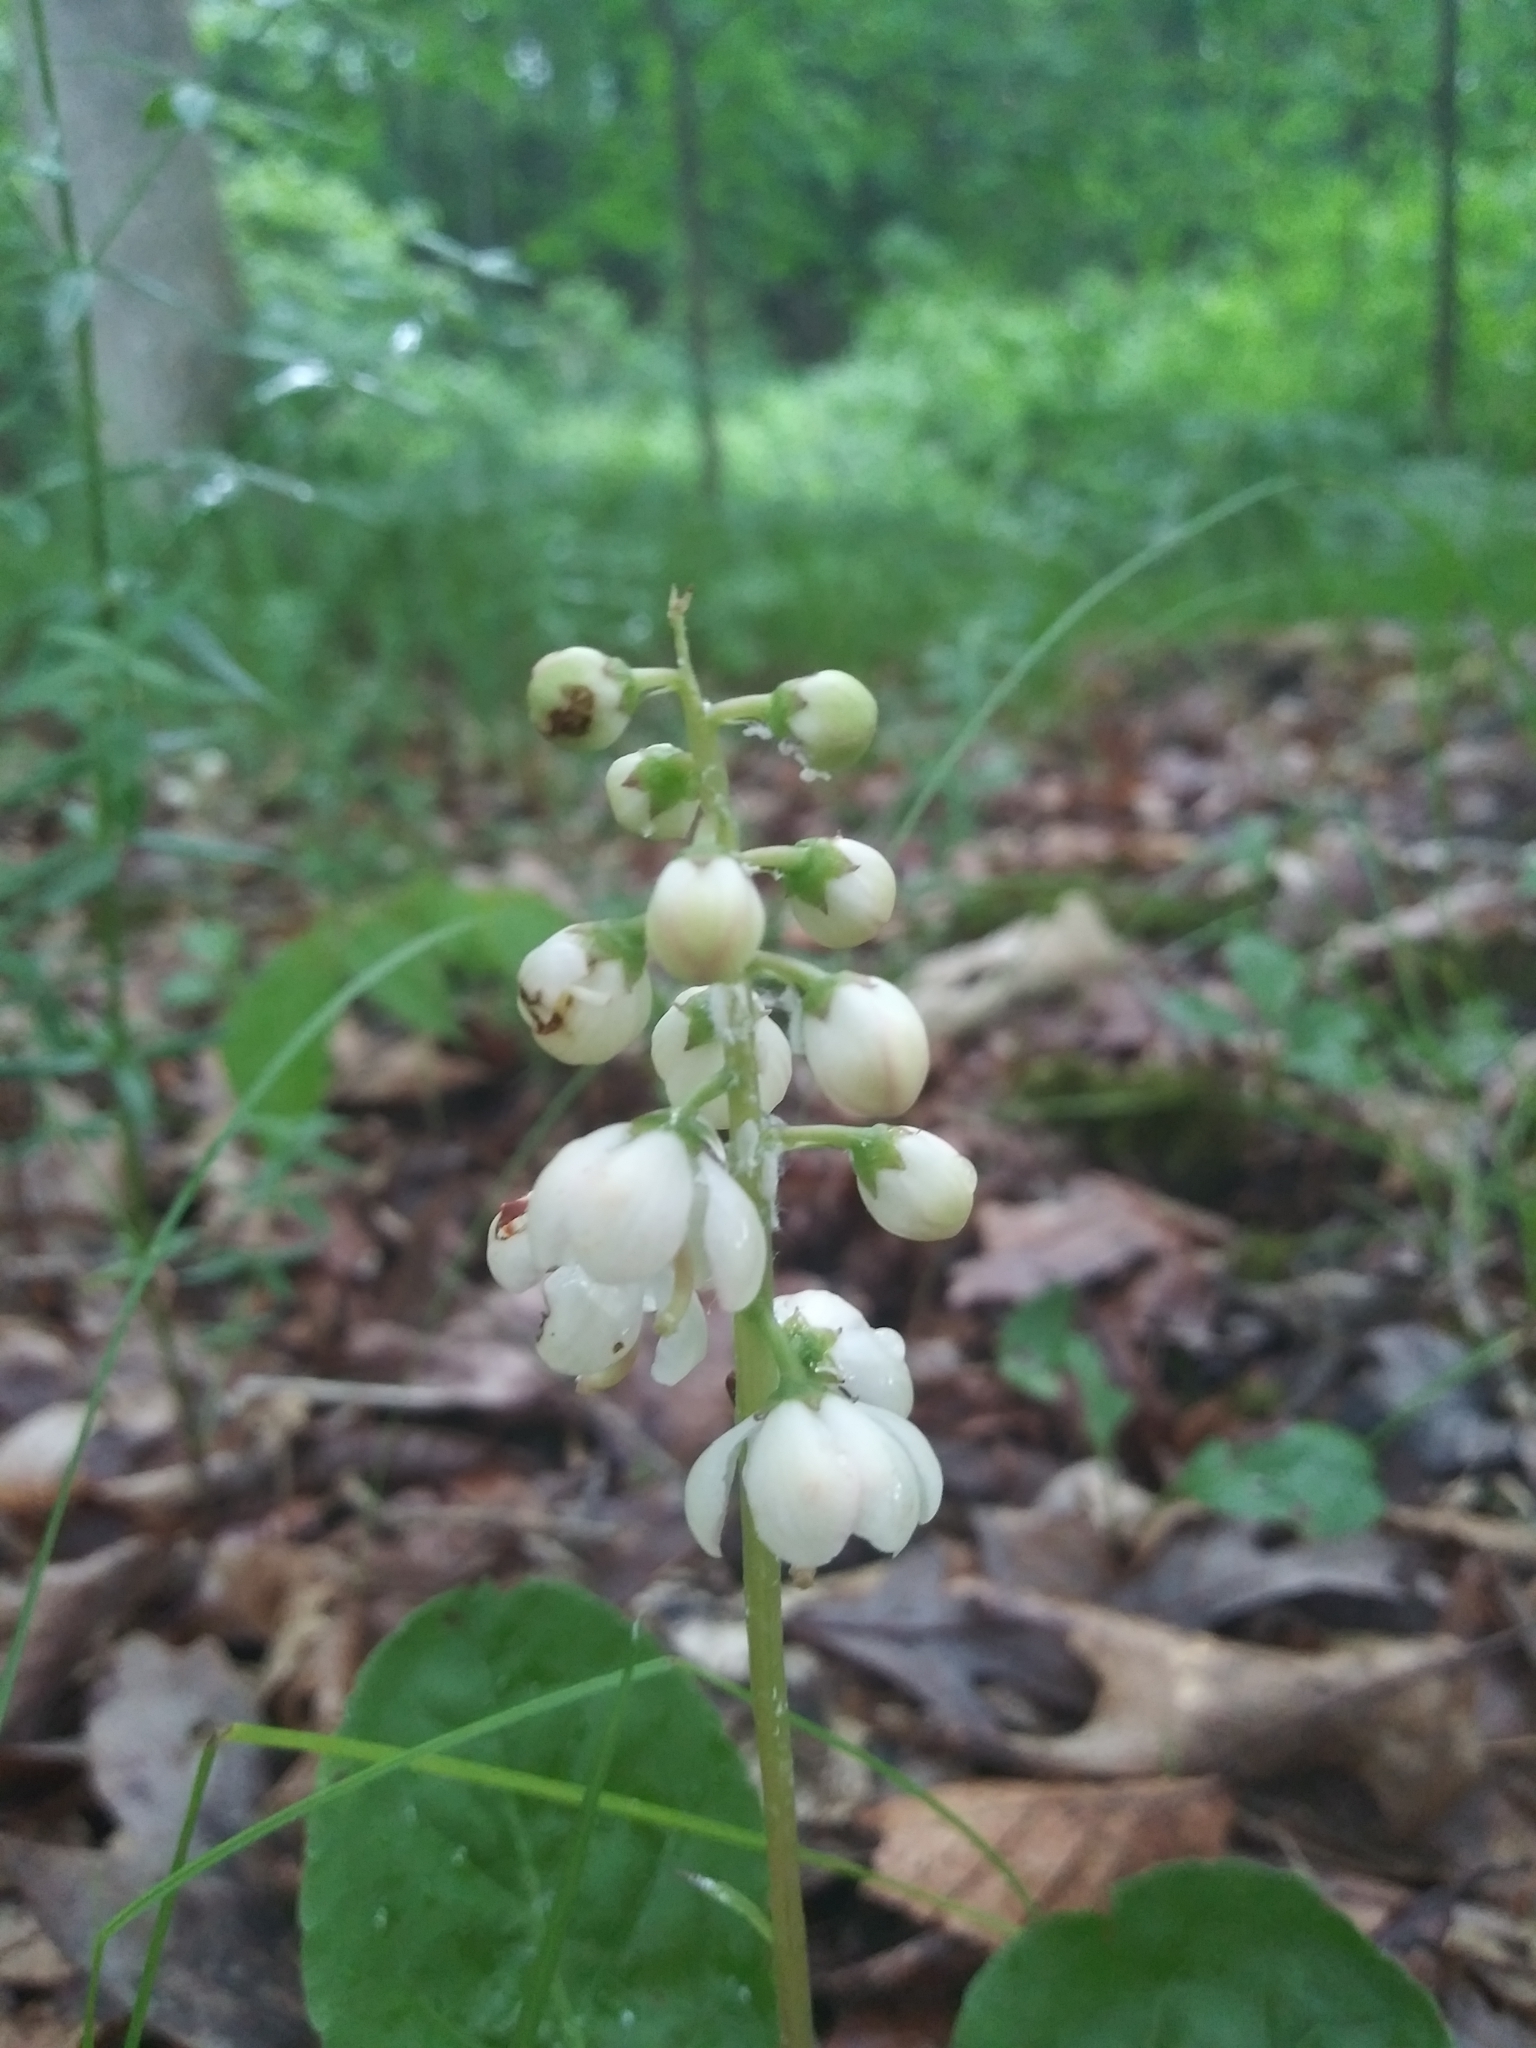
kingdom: Plantae
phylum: Tracheophyta
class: Magnoliopsida
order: Ericales
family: Ericaceae
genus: Pyrola
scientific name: Pyrola elliptica
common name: Shinleaf
